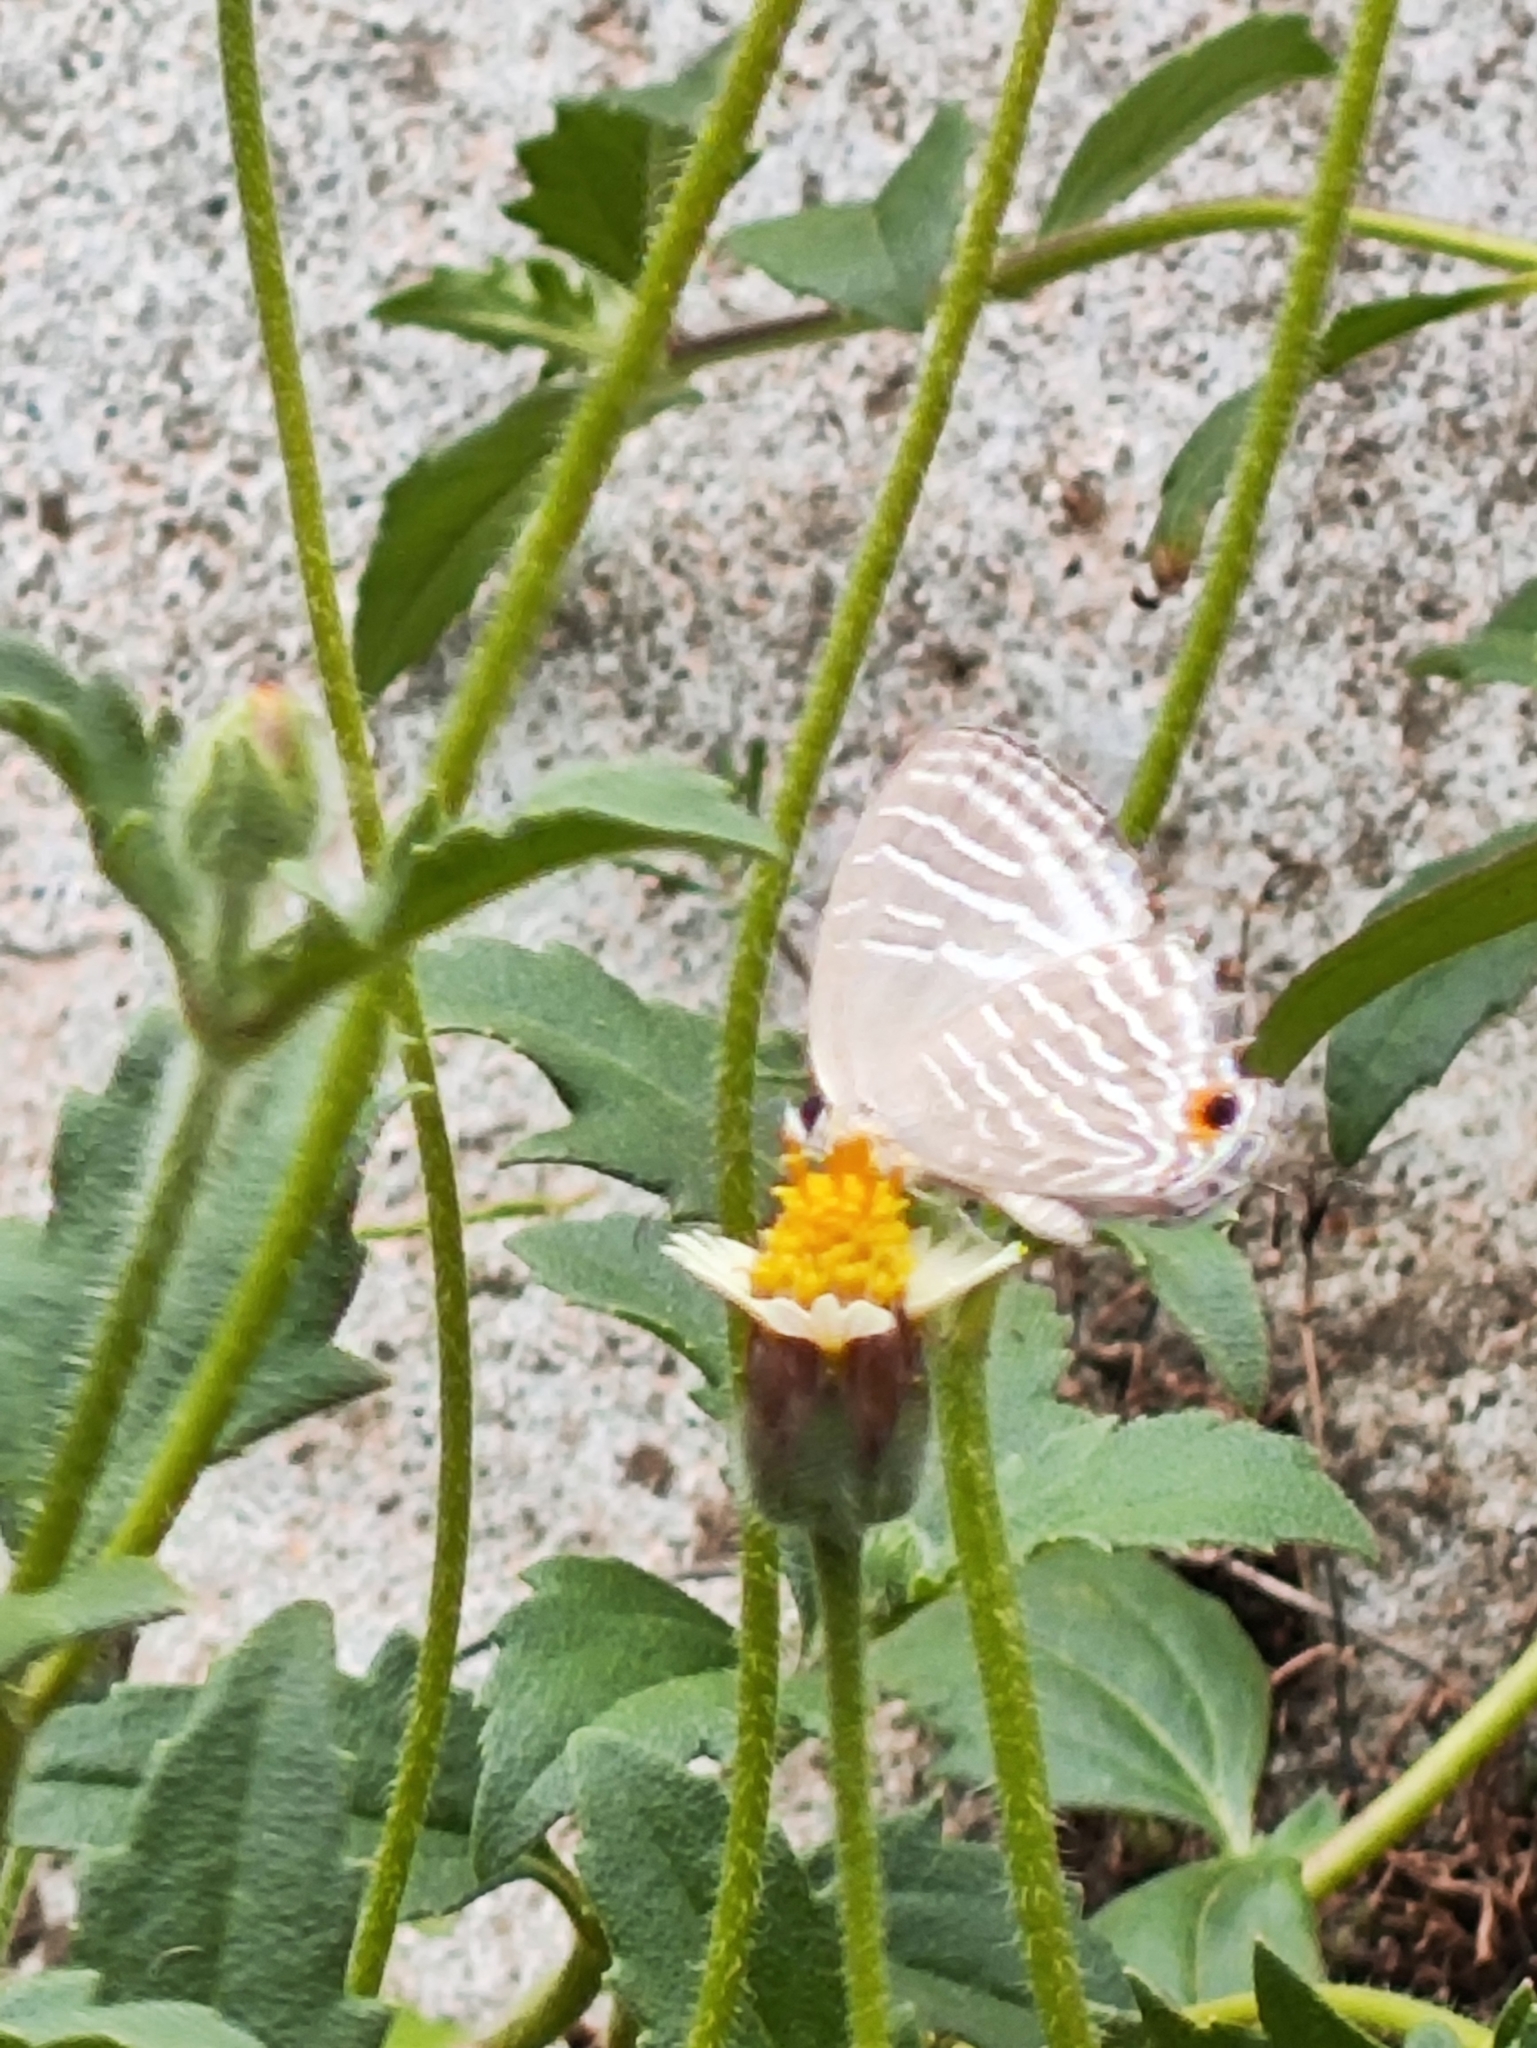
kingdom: Animalia
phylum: Arthropoda
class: Insecta
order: Lepidoptera
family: Lycaenidae
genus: Jamides
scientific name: Jamides celeno
